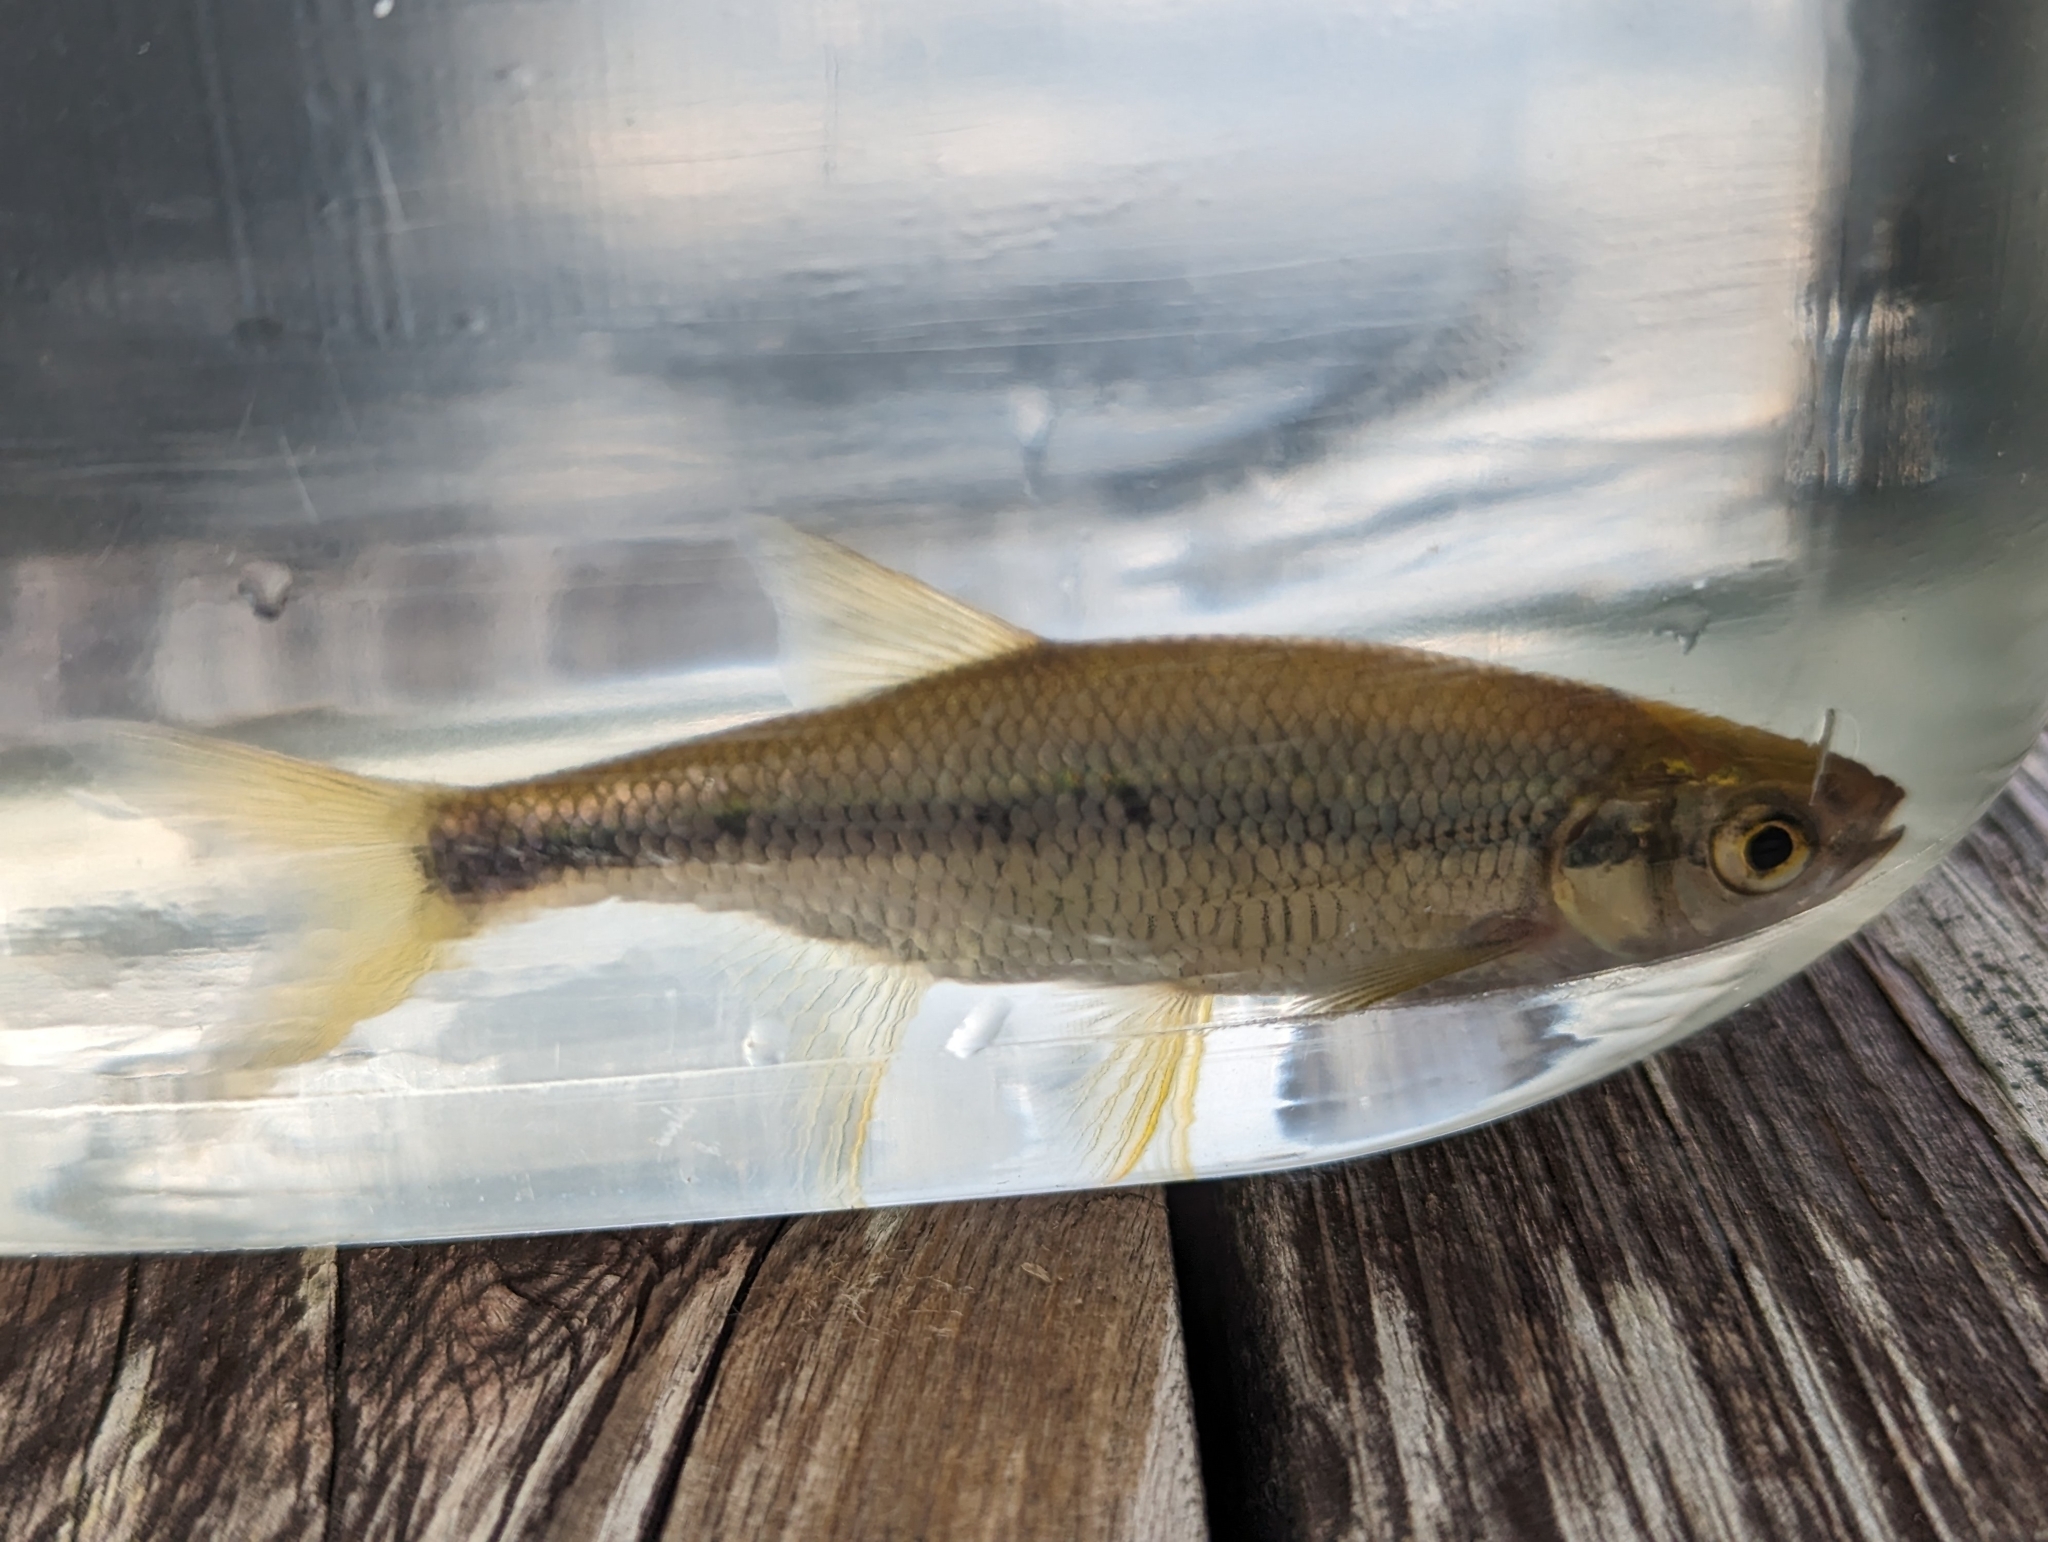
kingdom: Animalia
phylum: Chordata
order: Cypriniformes
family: Cyprinidae
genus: Notemigonus
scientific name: Notemigonus crysoleucas
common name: Golden shiner
